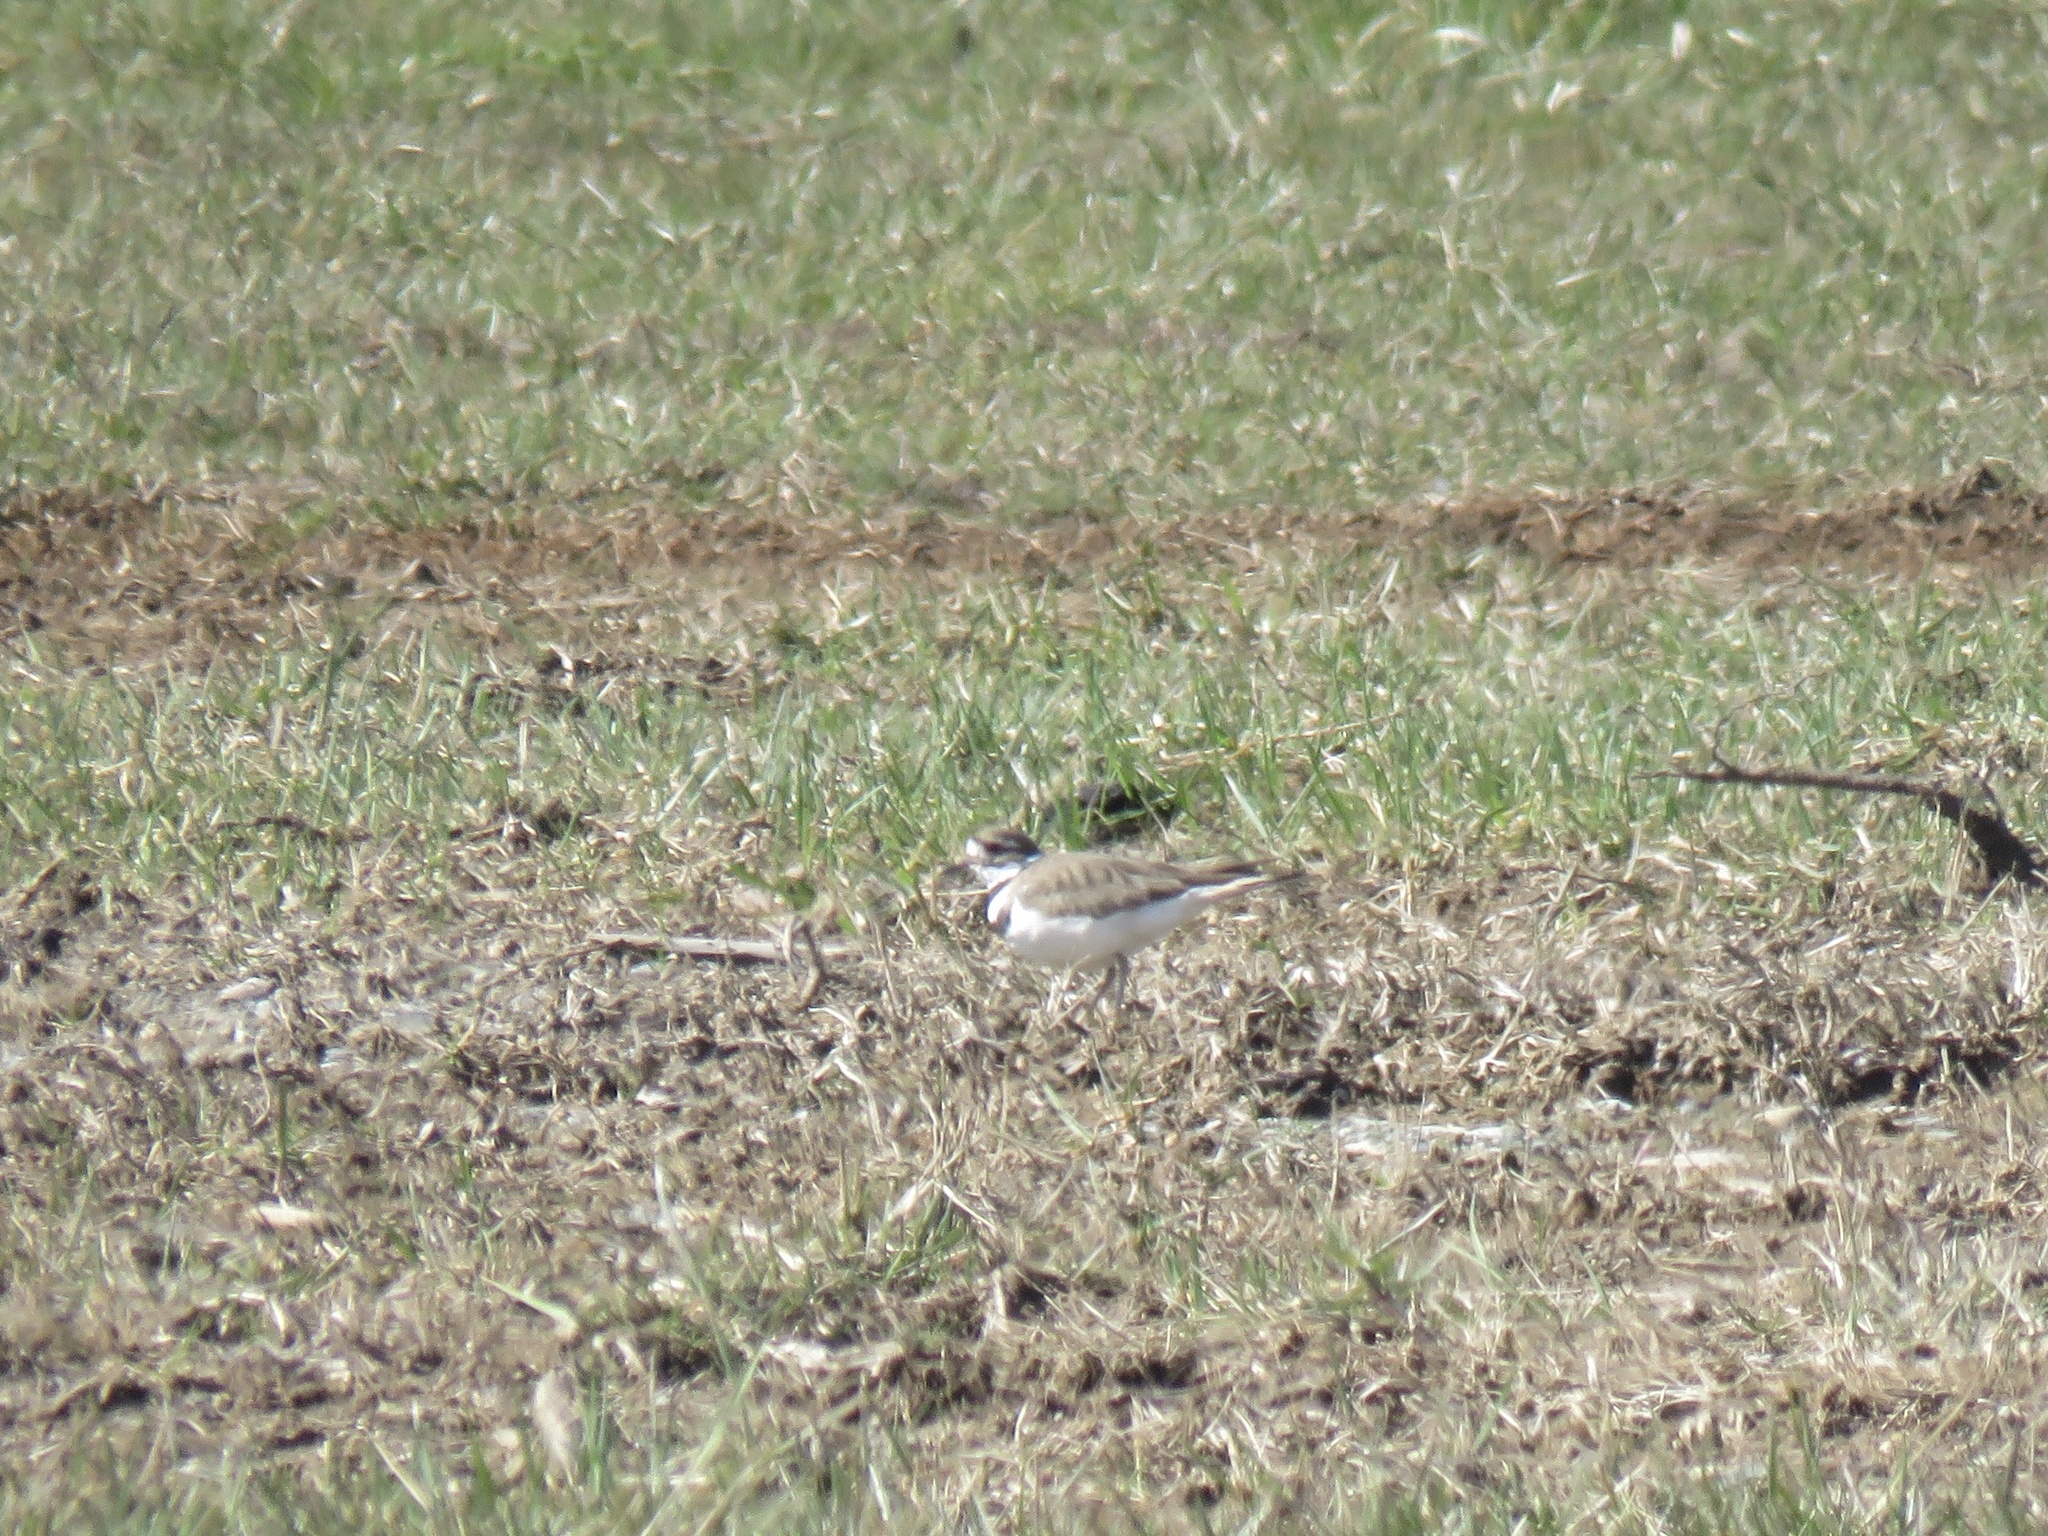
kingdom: Animalia
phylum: Chordata
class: Aves
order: Charadriiformes
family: Charadriidae
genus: Charadrius
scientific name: Charadrius vociferus
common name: Killdeer
